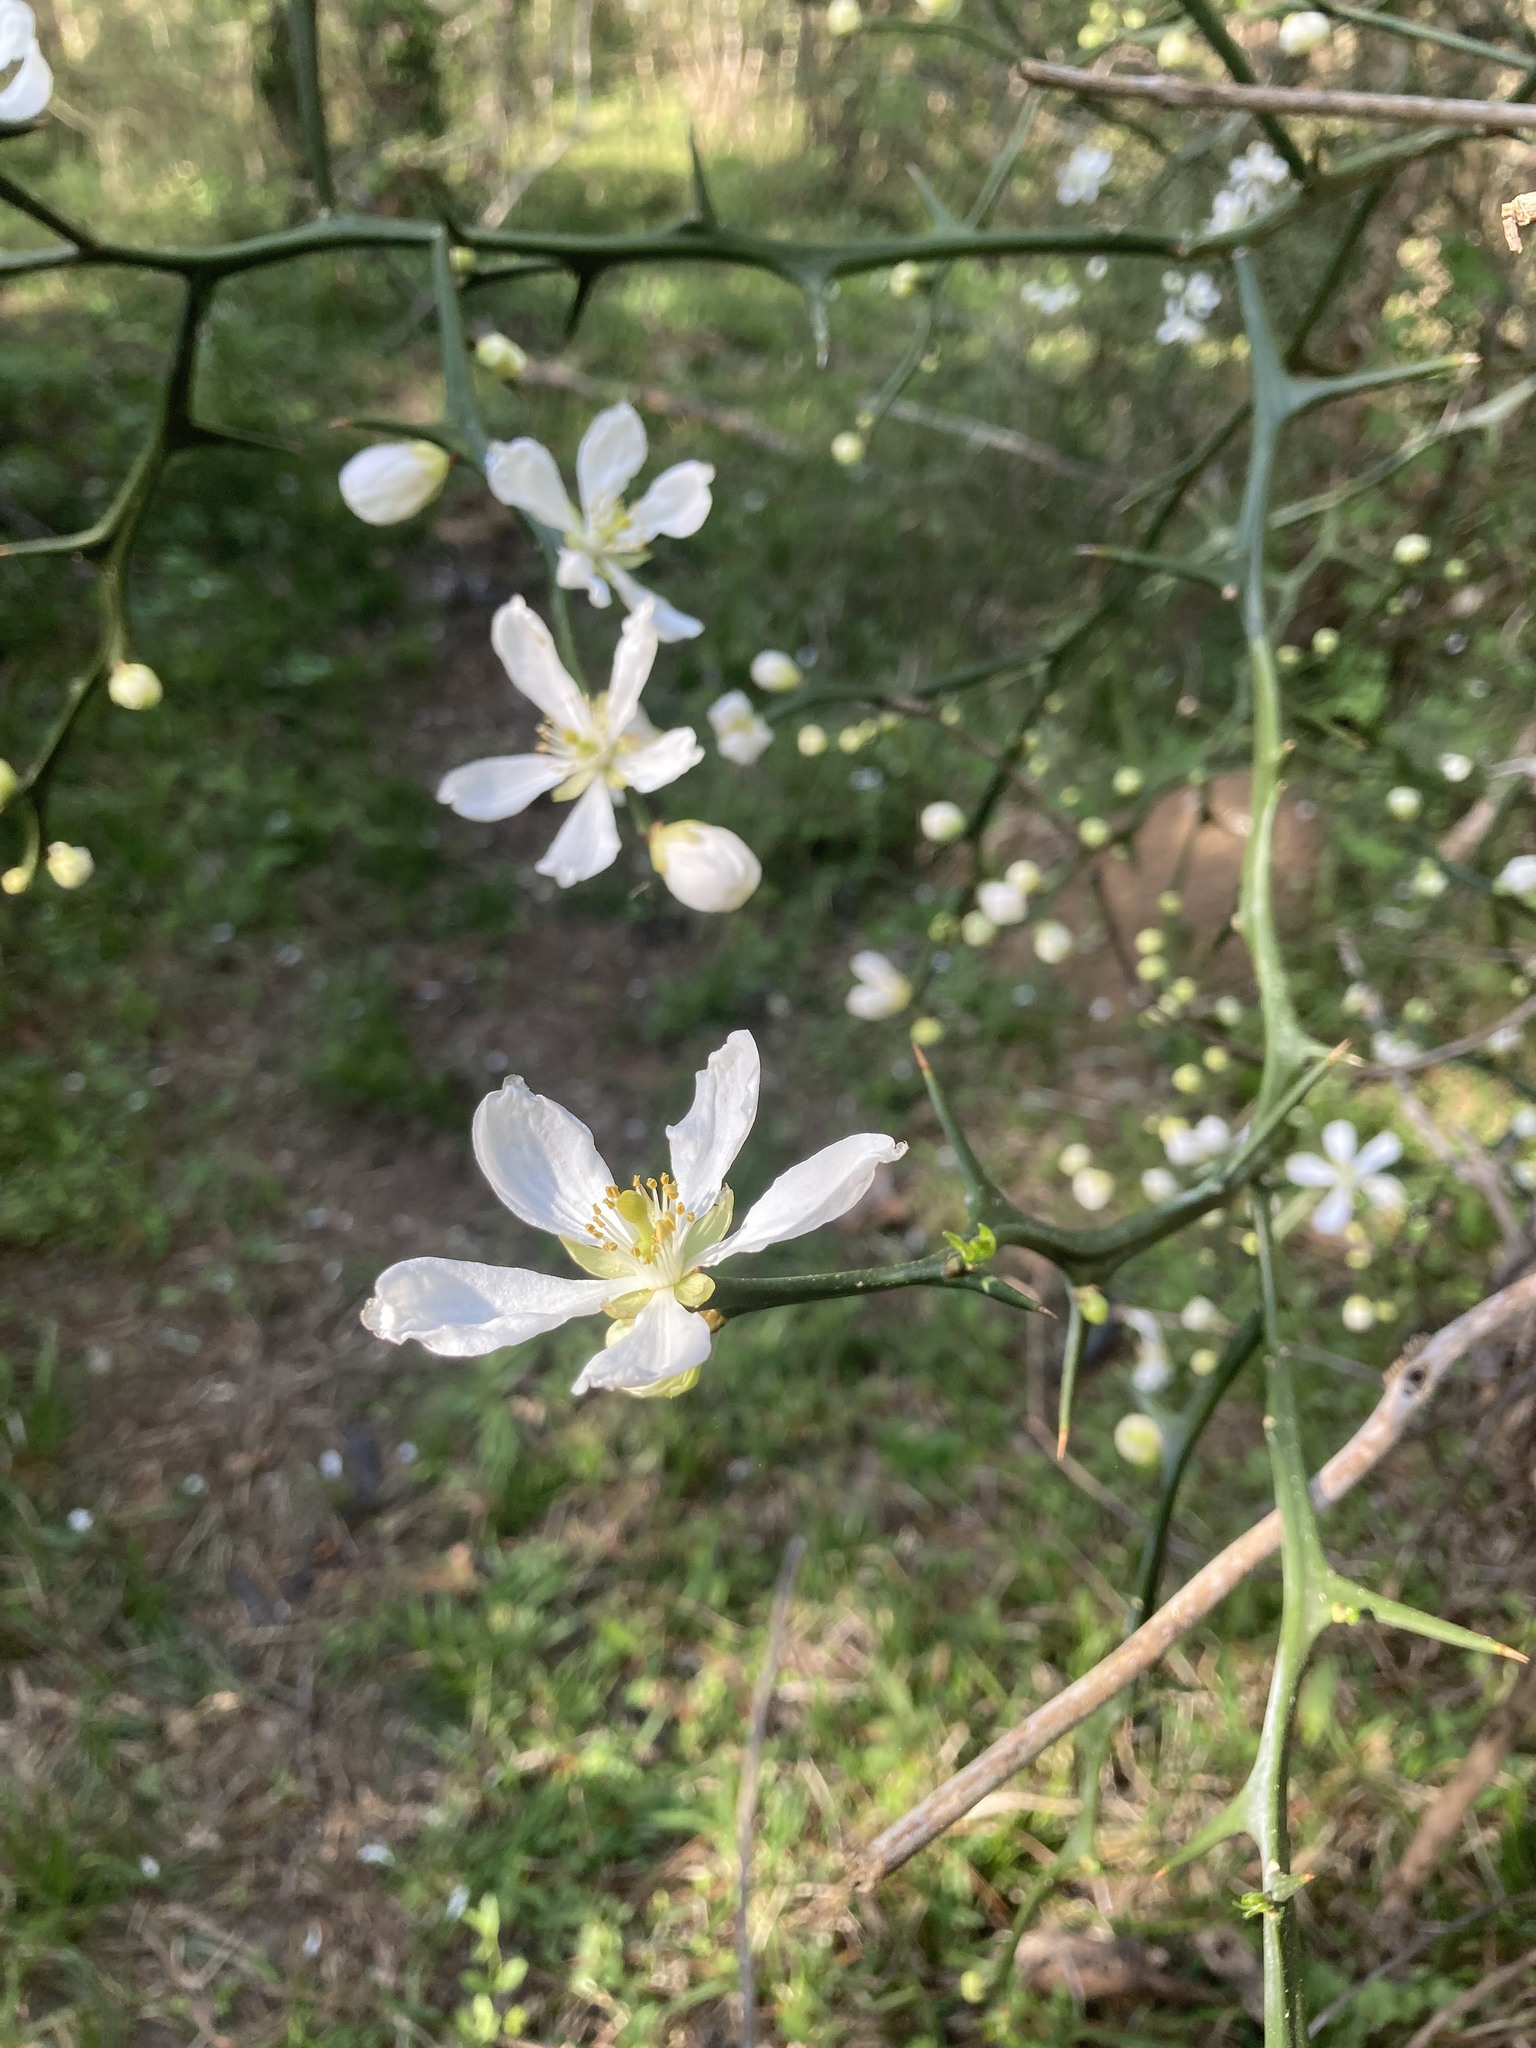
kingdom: Plantae
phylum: Tracheophyta
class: Magnoliopsida
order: Sapindales
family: Rutaceae
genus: Citrus
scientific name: Citrus trifoliata
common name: Japanese bitter-orange
